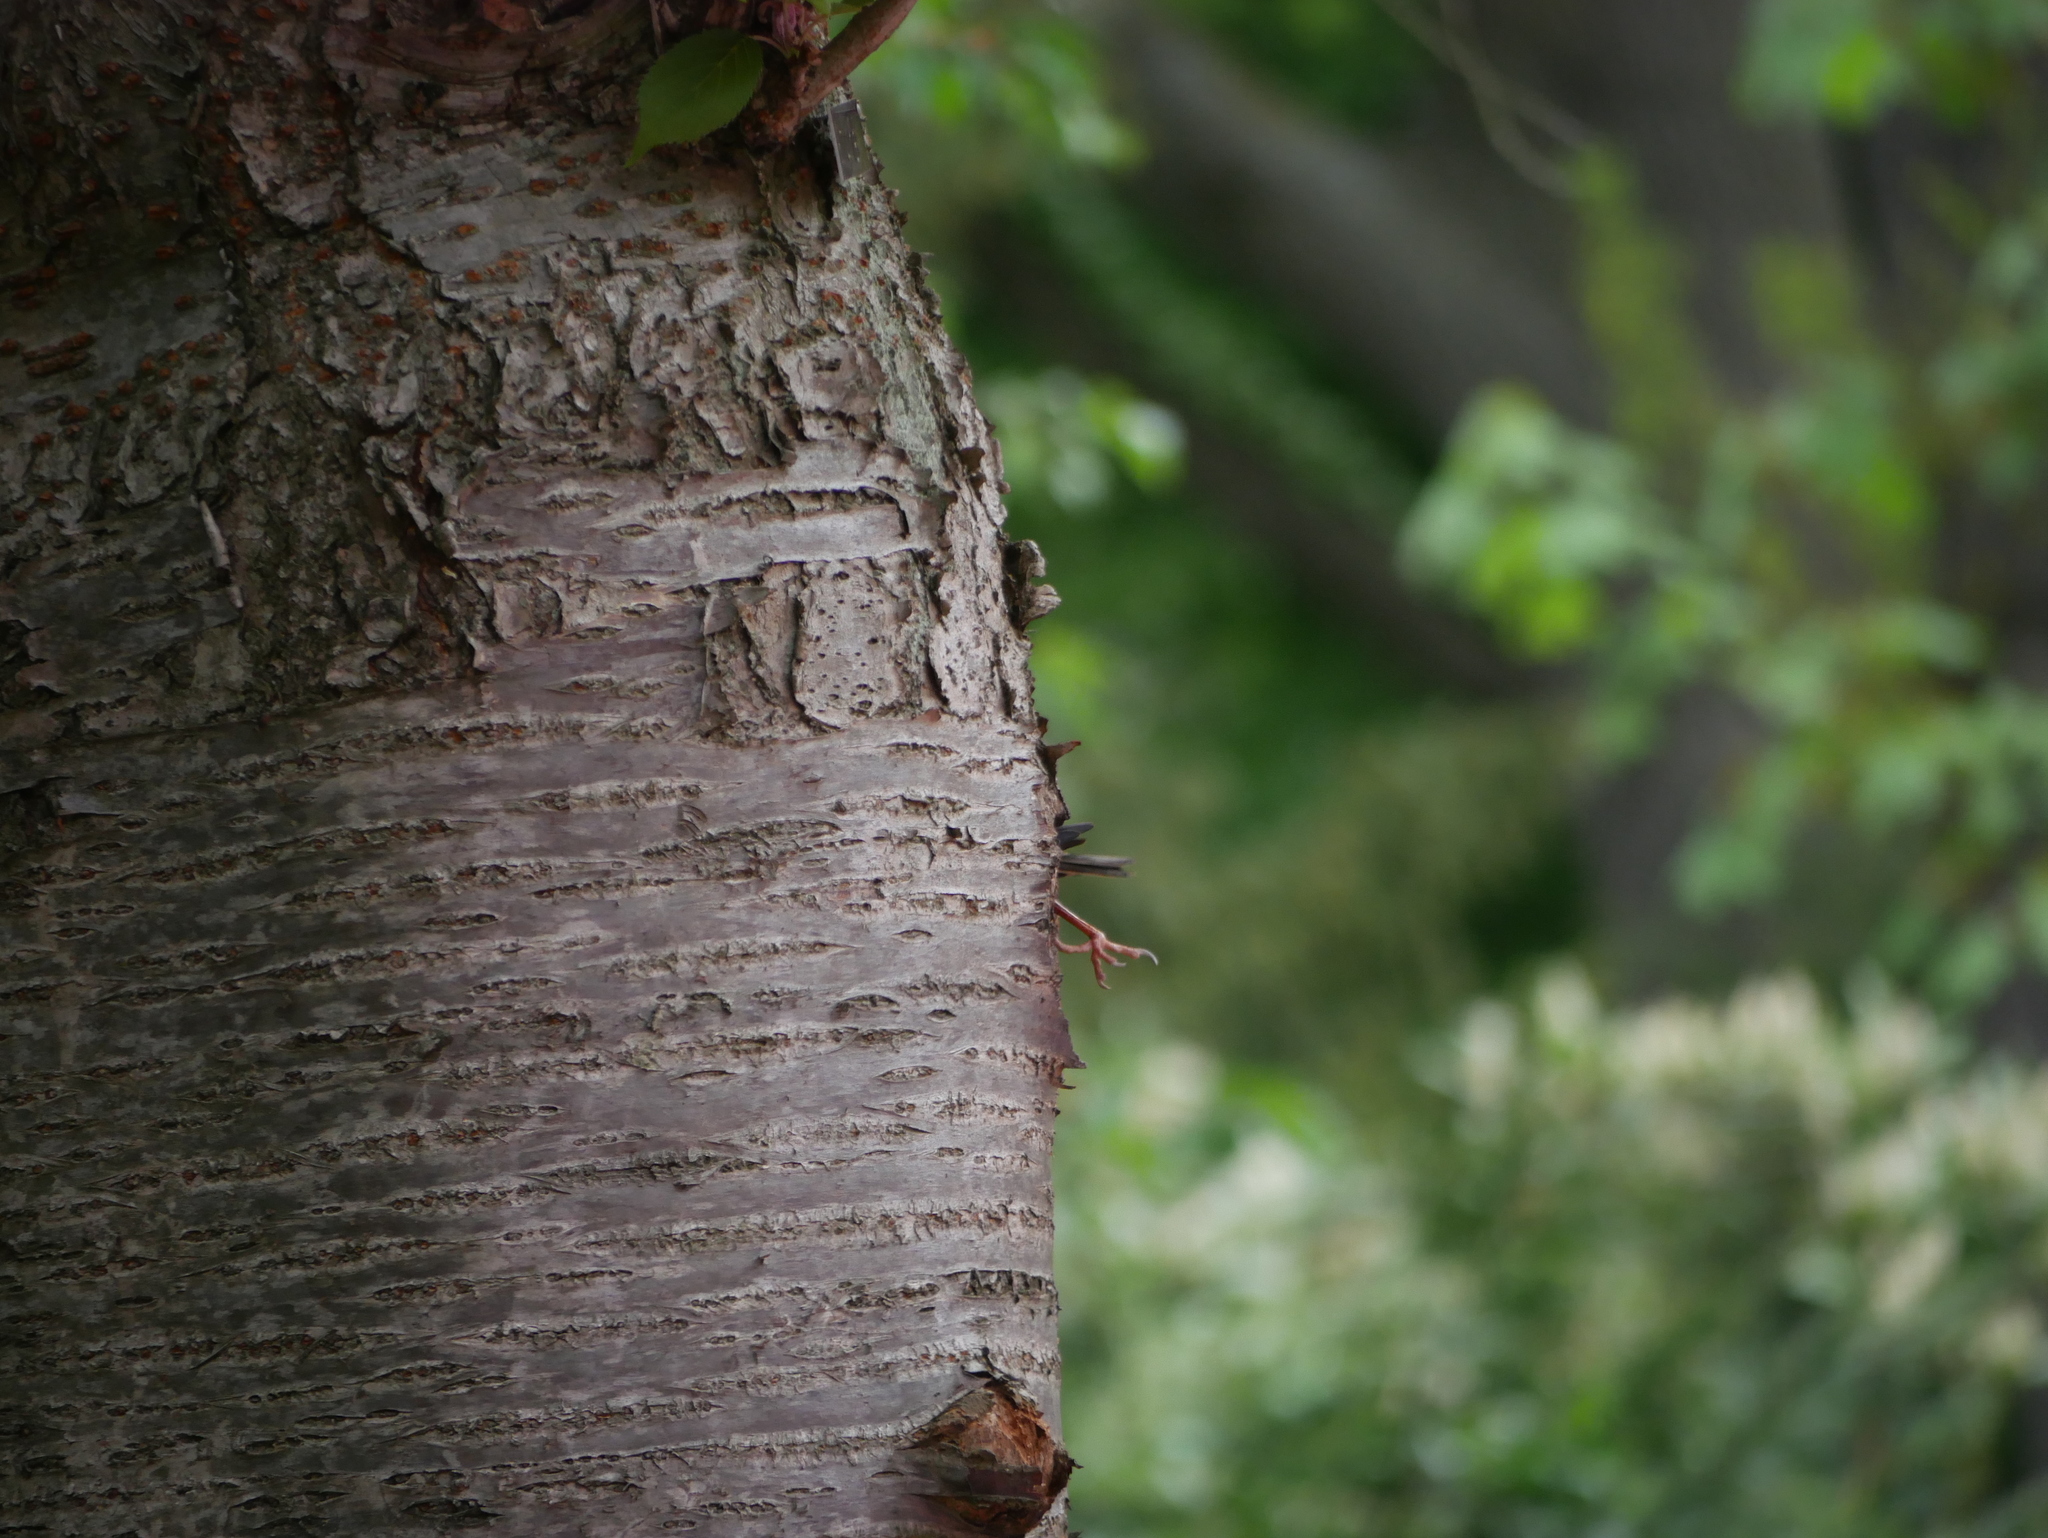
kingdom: Animalia
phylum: Chordata
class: Aves
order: Passeriformes
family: Sturnidae
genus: Sturnus
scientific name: Sturnus vulgaris
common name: Common starling
